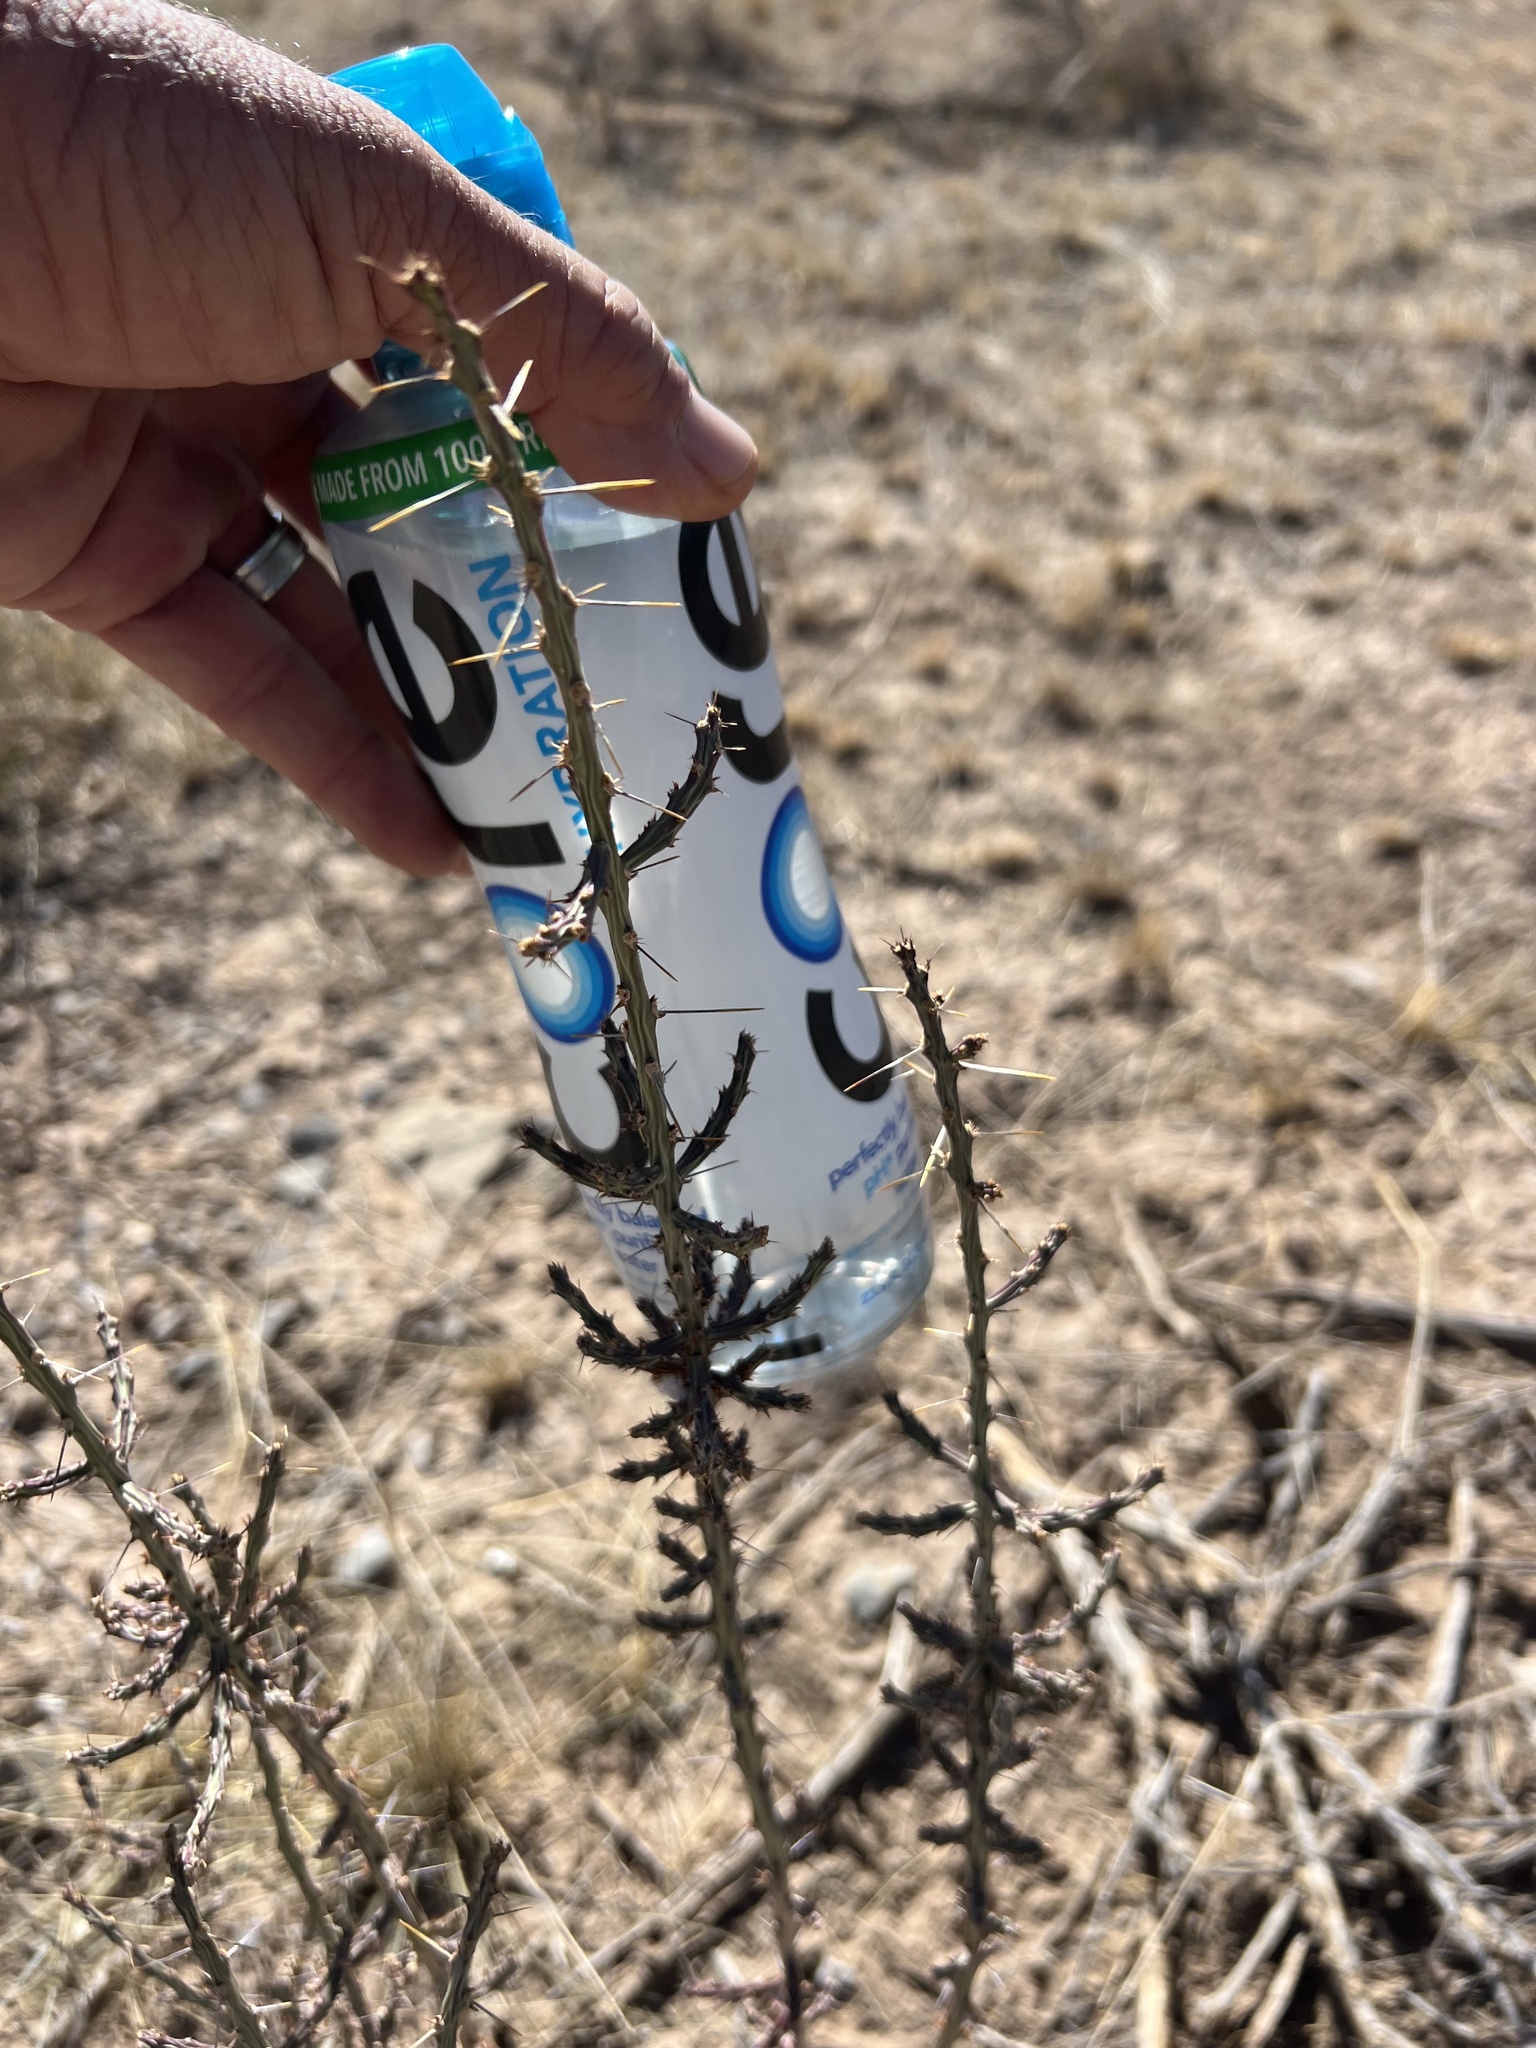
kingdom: Plantae
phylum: Tracheophyta
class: Magnoliopsida
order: Caryophyllales
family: Cactaceae
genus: Cylindropuntia
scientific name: Cylindropuntia leptocaulis
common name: Christmas cactus
